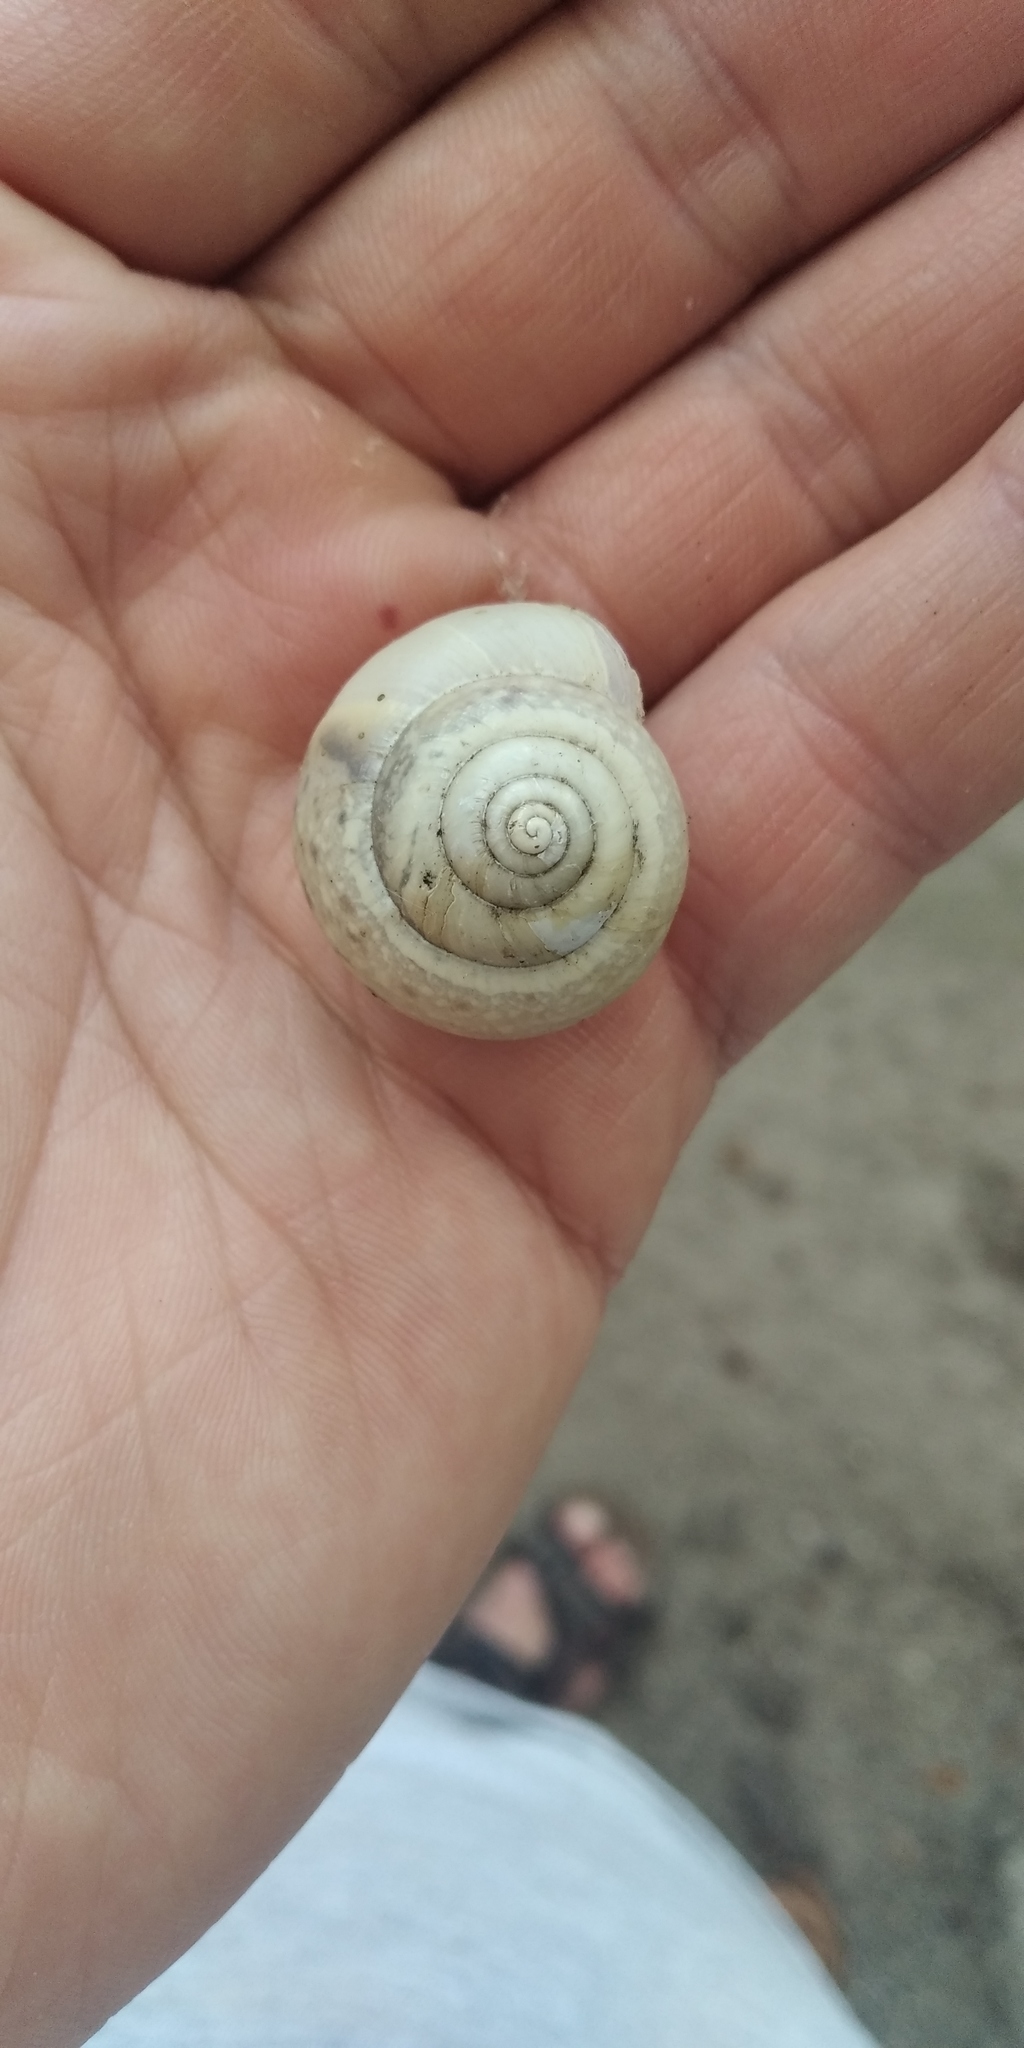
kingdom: Animalia
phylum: Mollusca
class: Gastropoda
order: Stylommatophora
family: Camaenidae
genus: Fruticicola
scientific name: Fruticicola fruticum
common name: Bush snail
